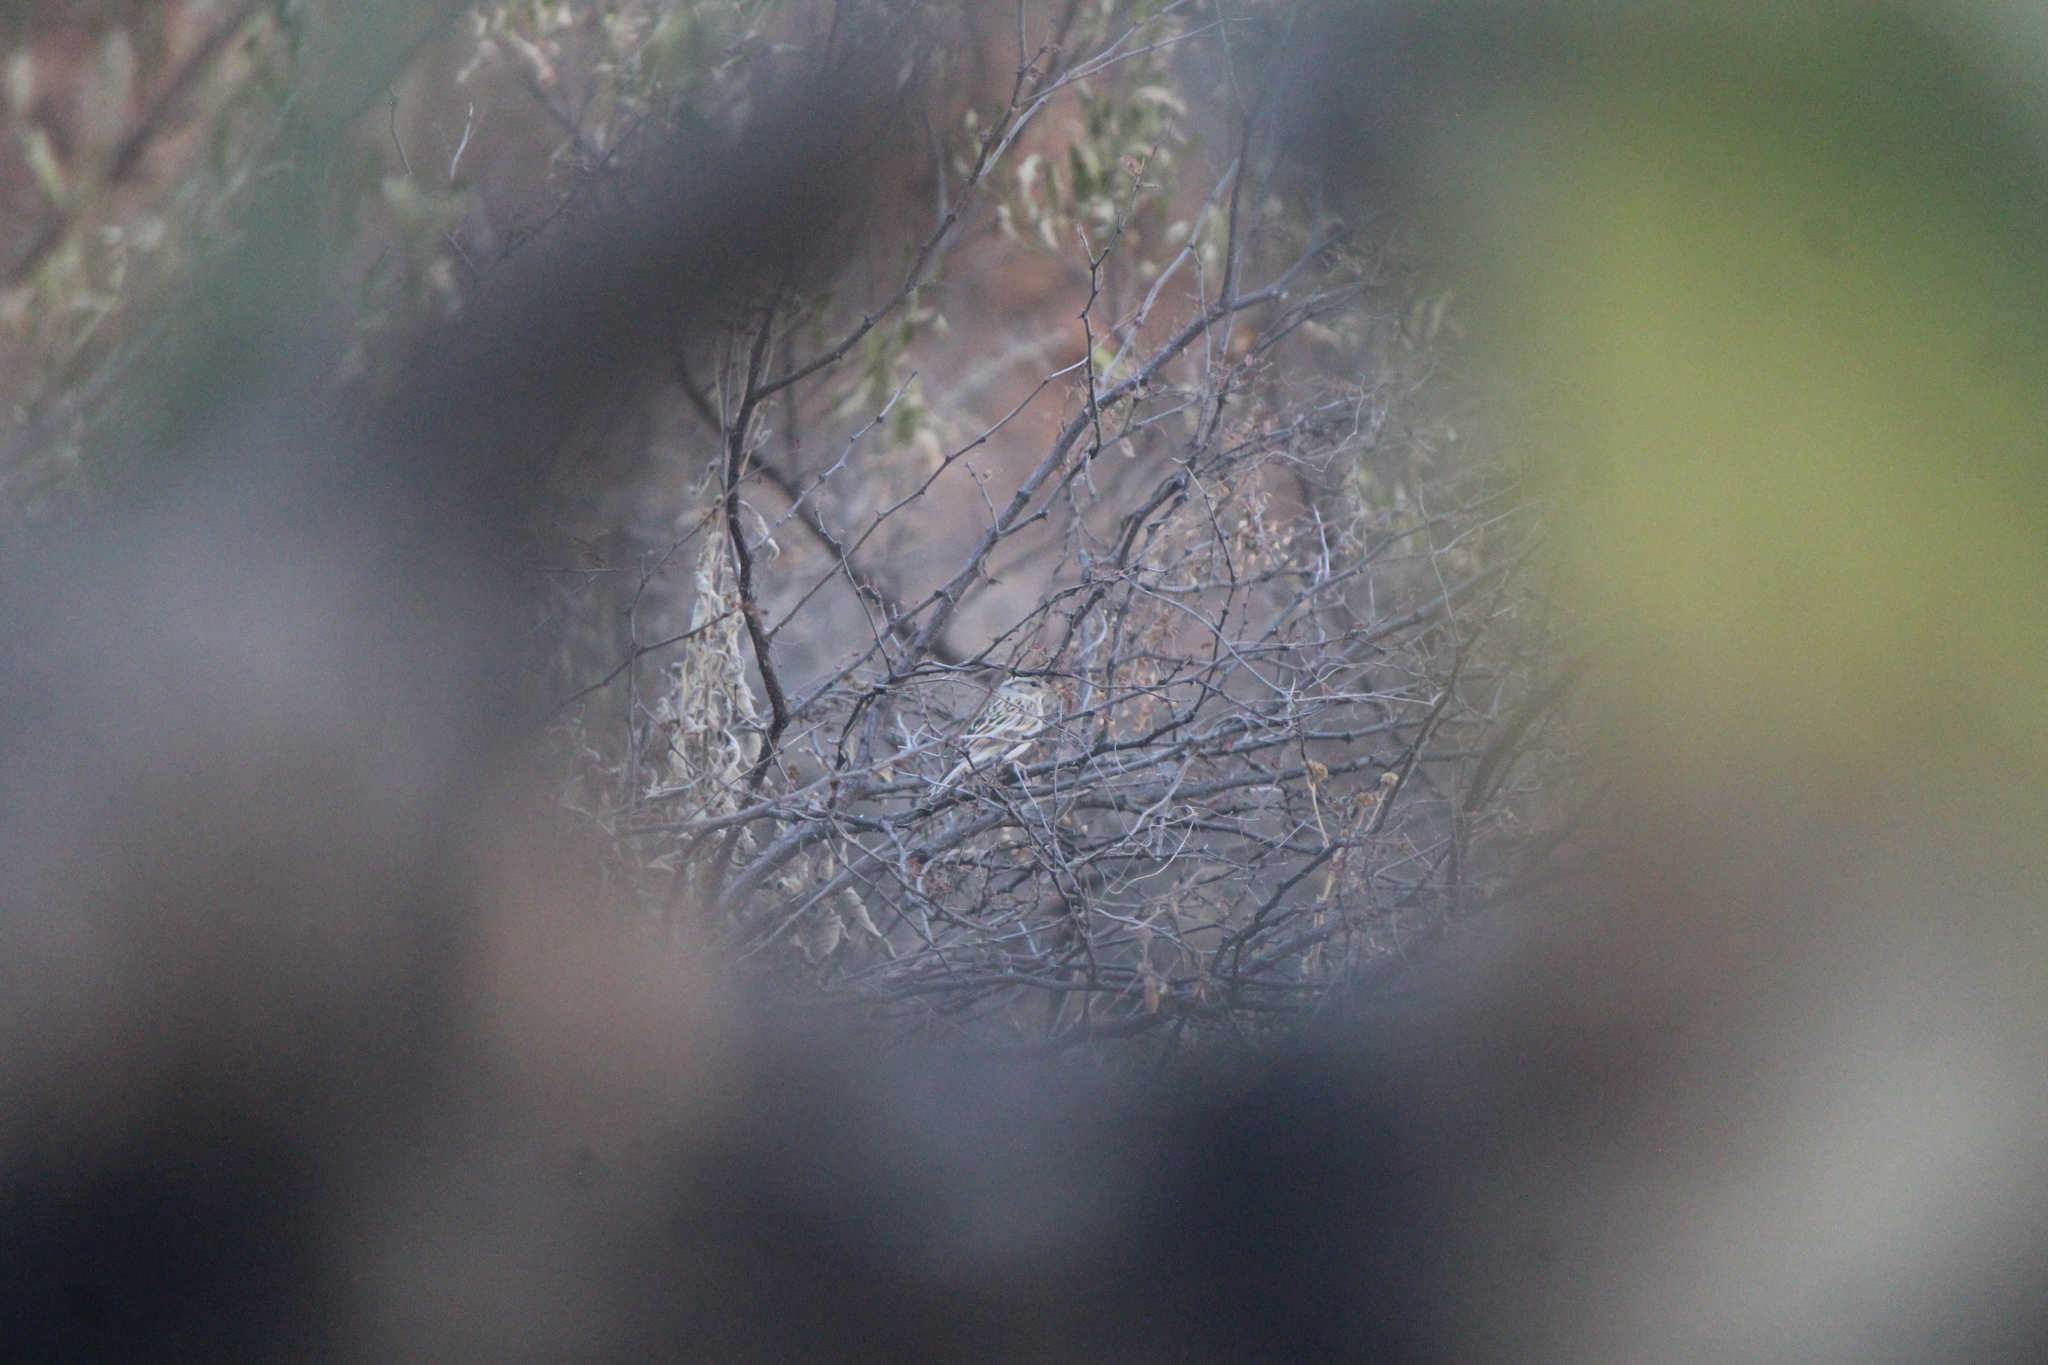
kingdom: Animalia
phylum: Chordata
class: Aves
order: Passeriformes
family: Passerellidae
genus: Spizella
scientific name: Spizella passerina
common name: Chipping sparrow
